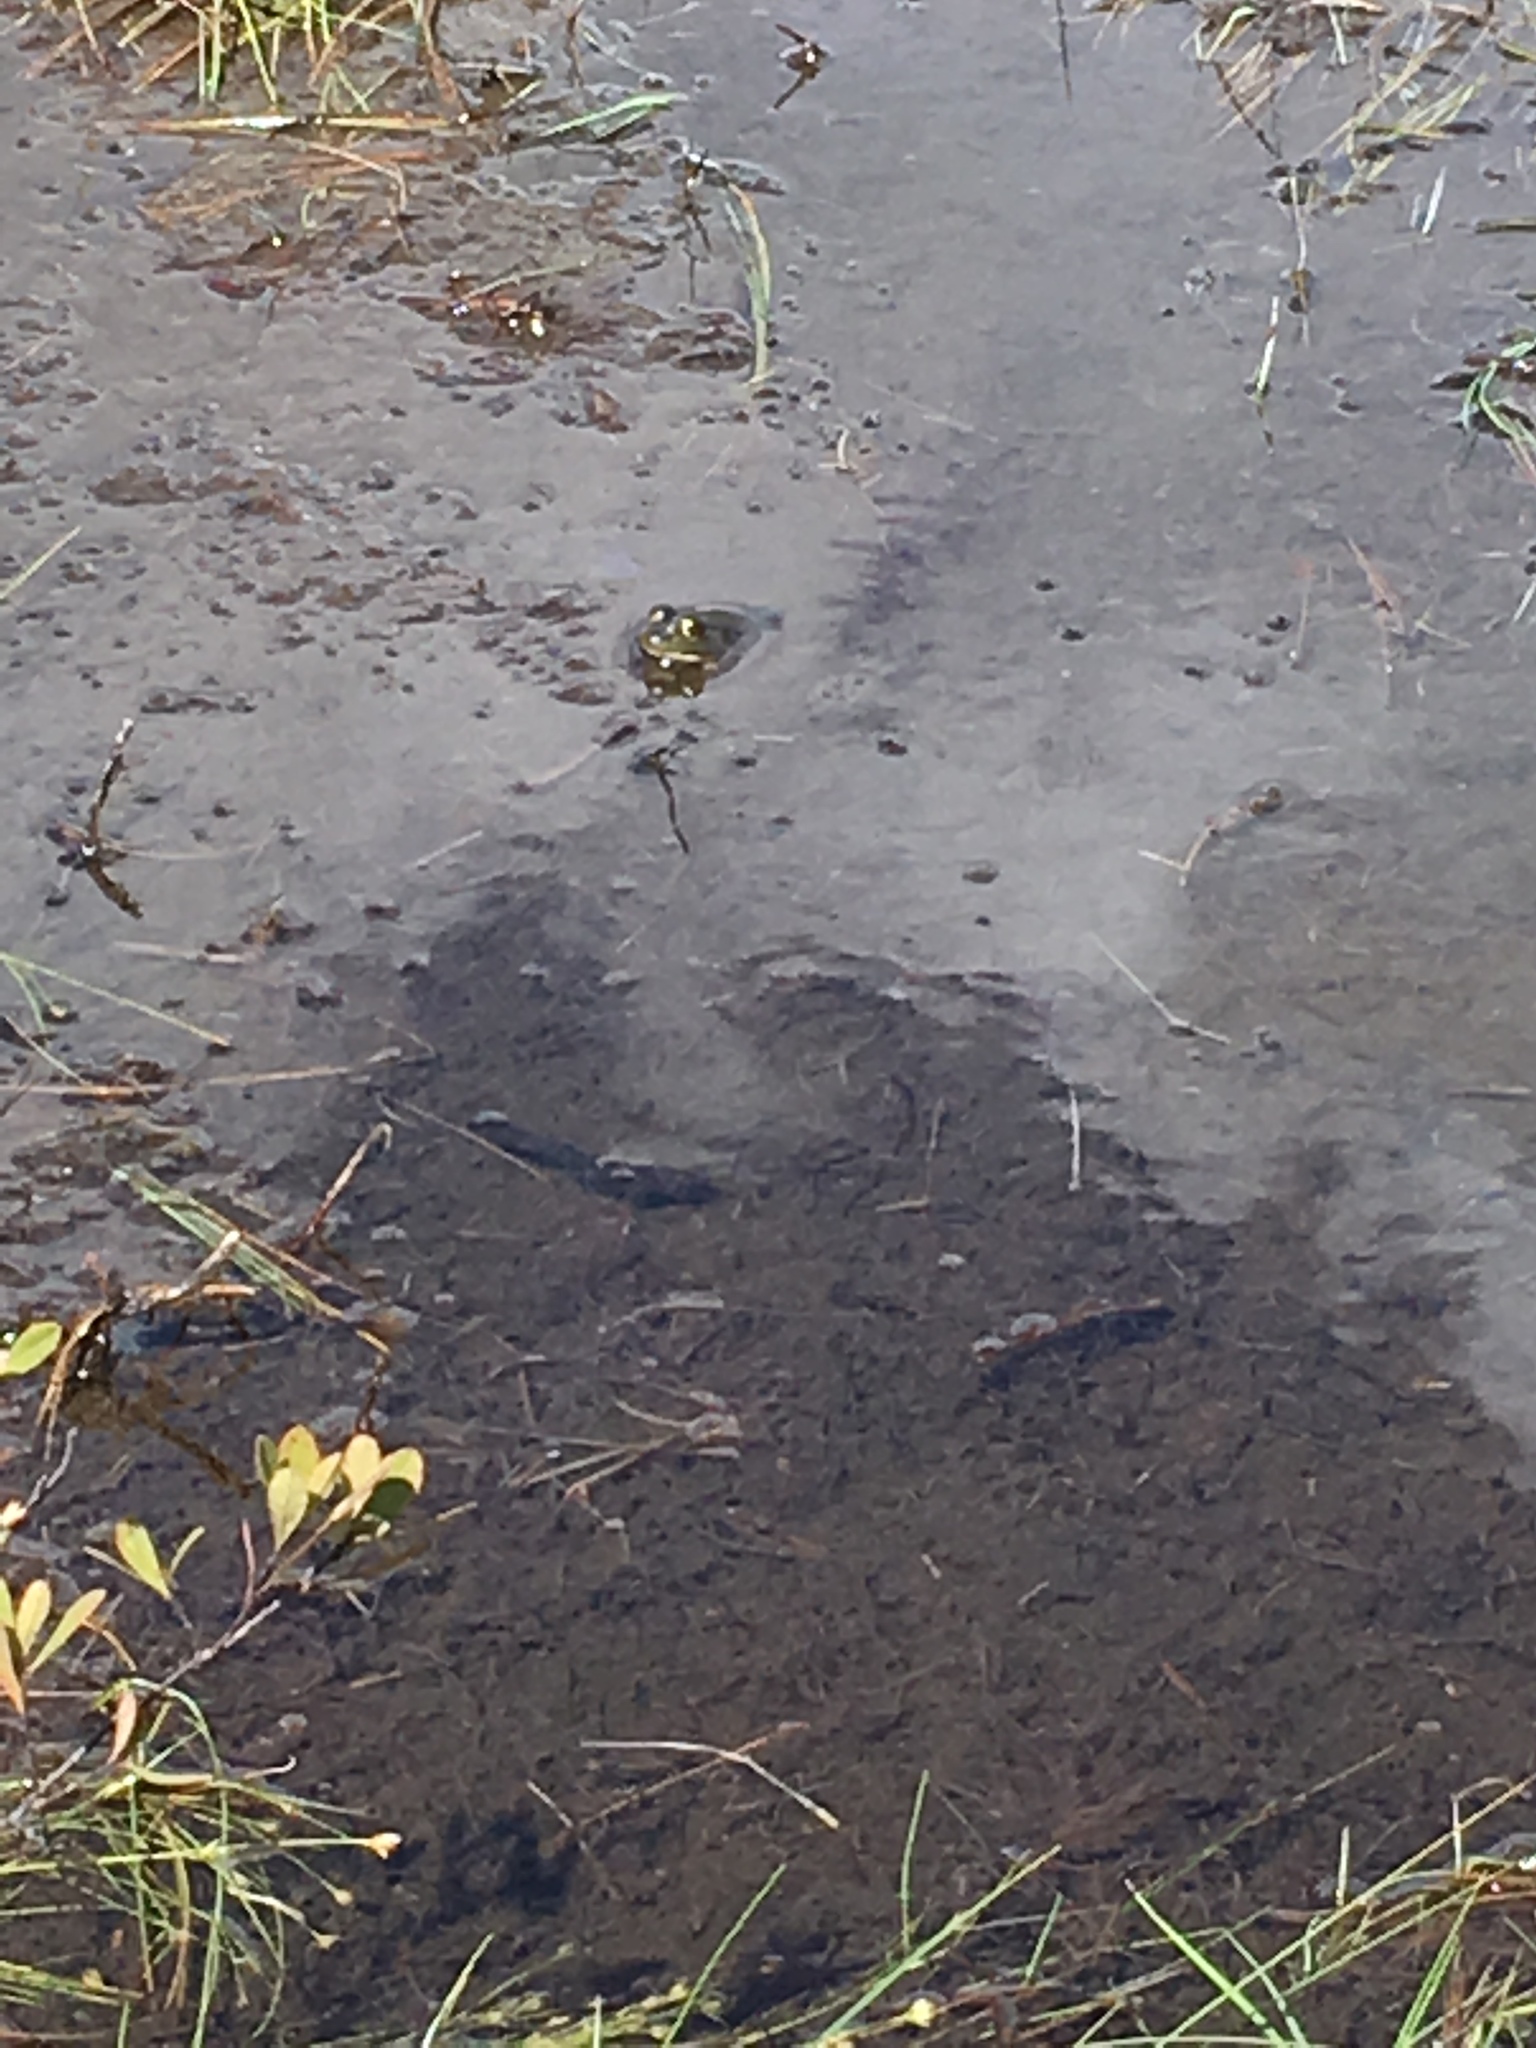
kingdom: Animalia
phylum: Chordata
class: Amphibia
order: Anura
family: Ranidae
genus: Lithobates
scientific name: Lithobates
